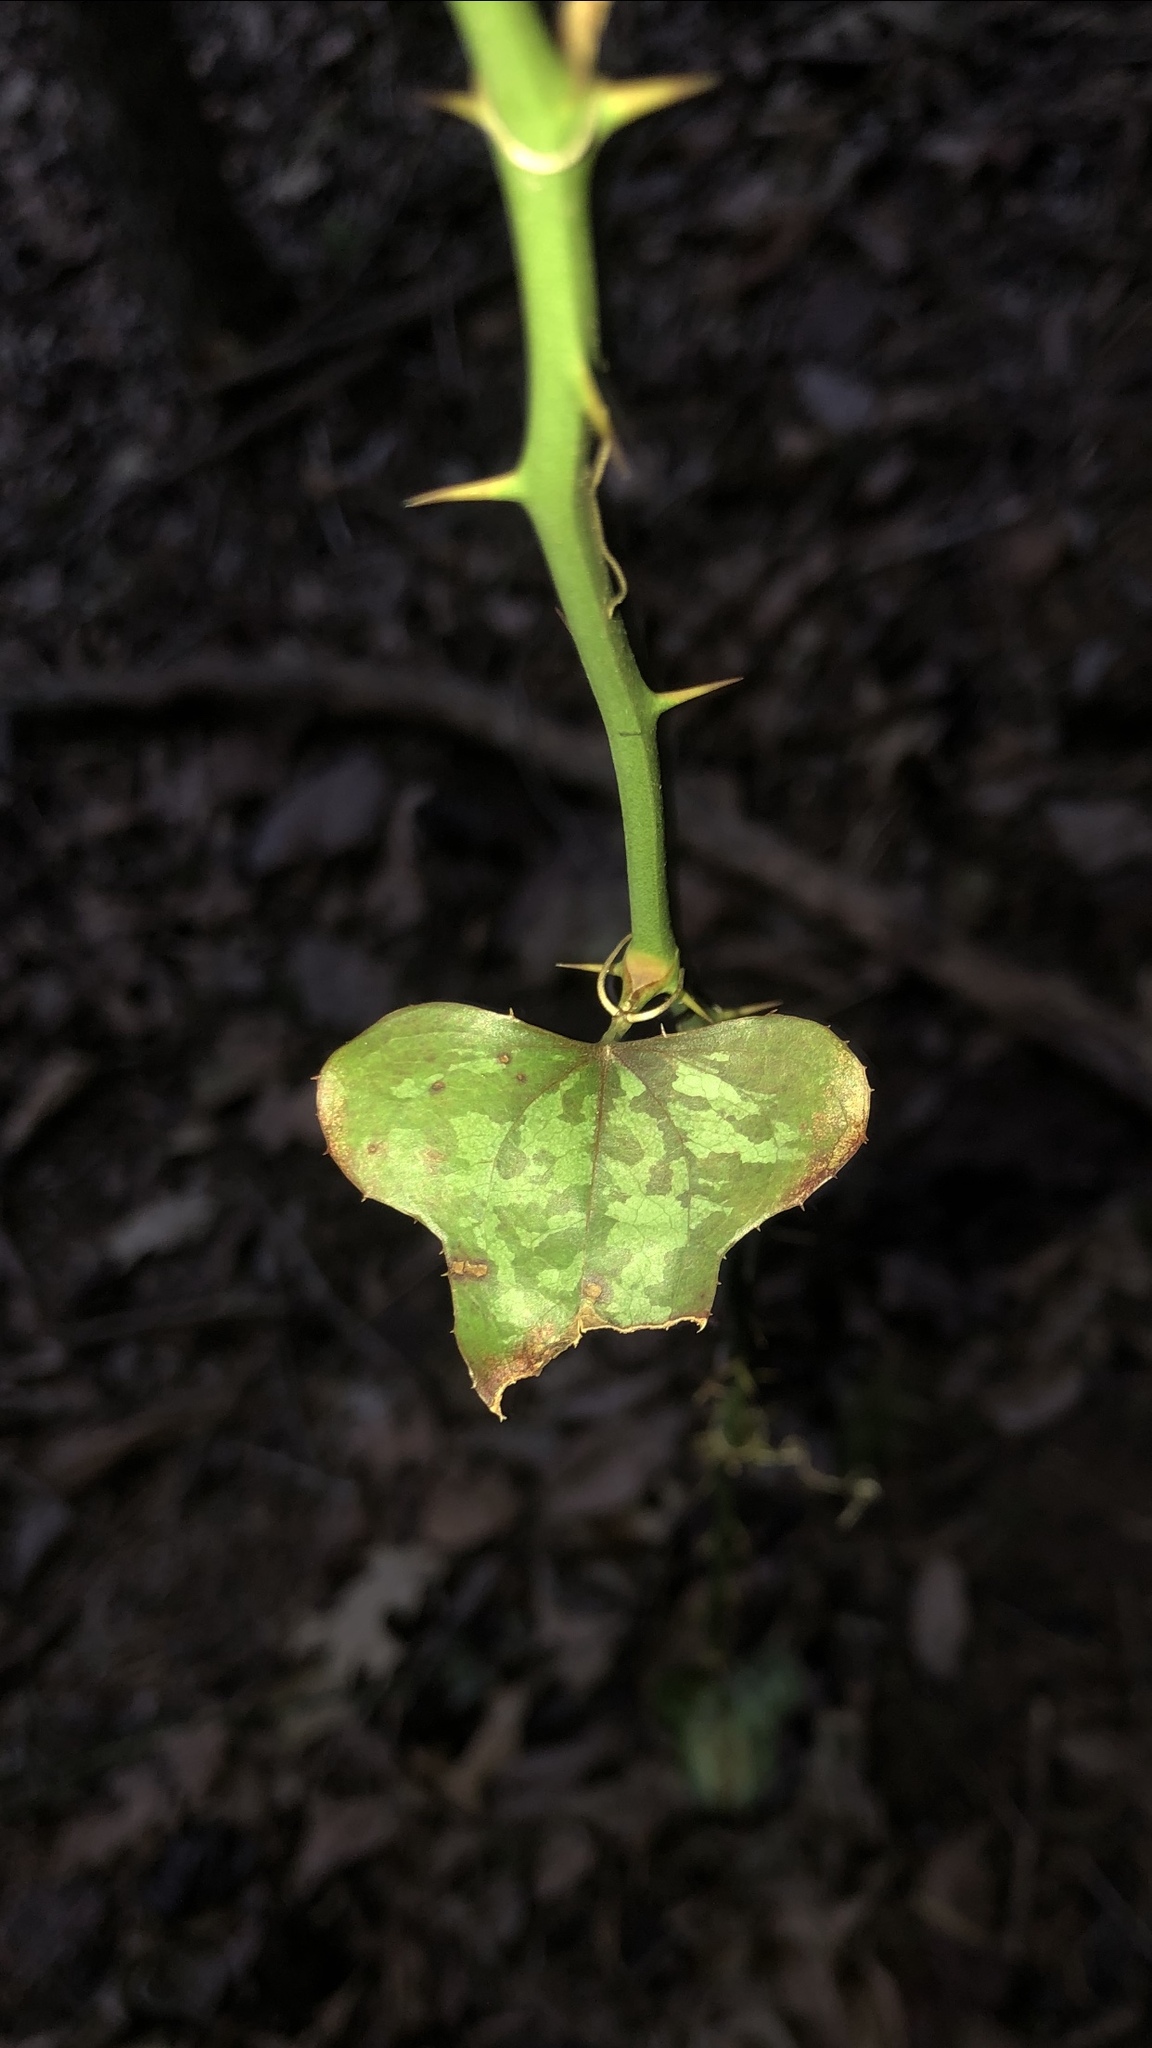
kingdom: Plantae
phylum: Tracheophyta
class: Liliopsida
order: Liliales
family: Smilacaceae
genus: Smilax
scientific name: Smilax bona-nox
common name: Catbrier
